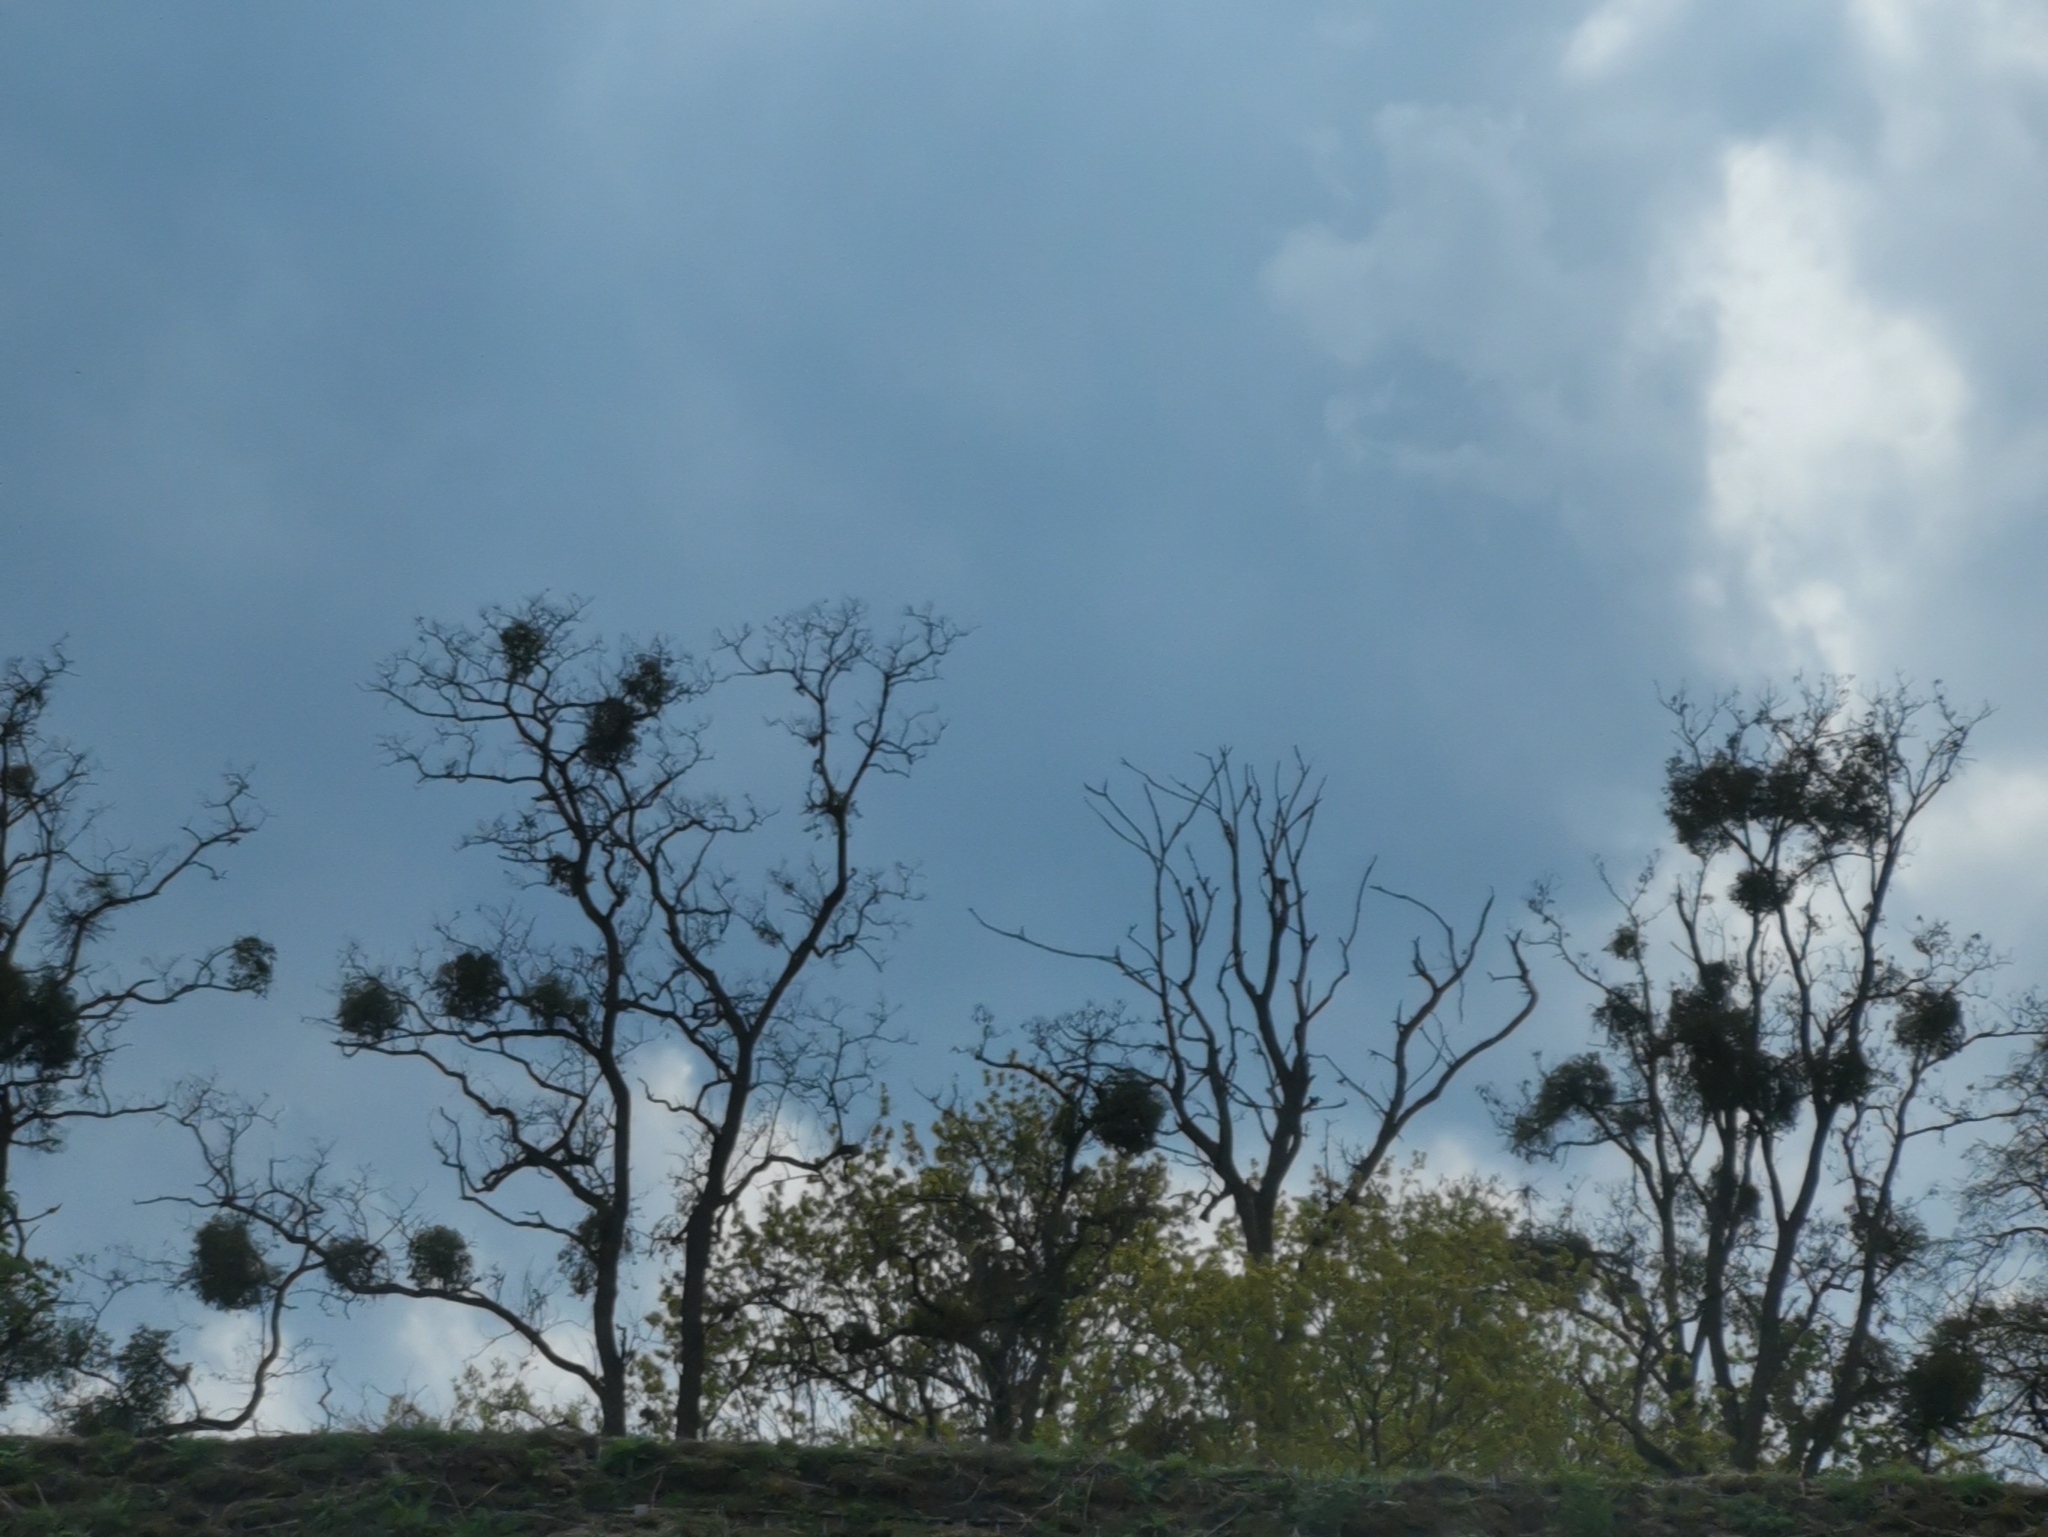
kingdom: Plantae
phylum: Tracheophyta
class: Magnoliopsida
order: Santalales
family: Viscaceae
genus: Viscum
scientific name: Viscum album
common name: Mistletoe
